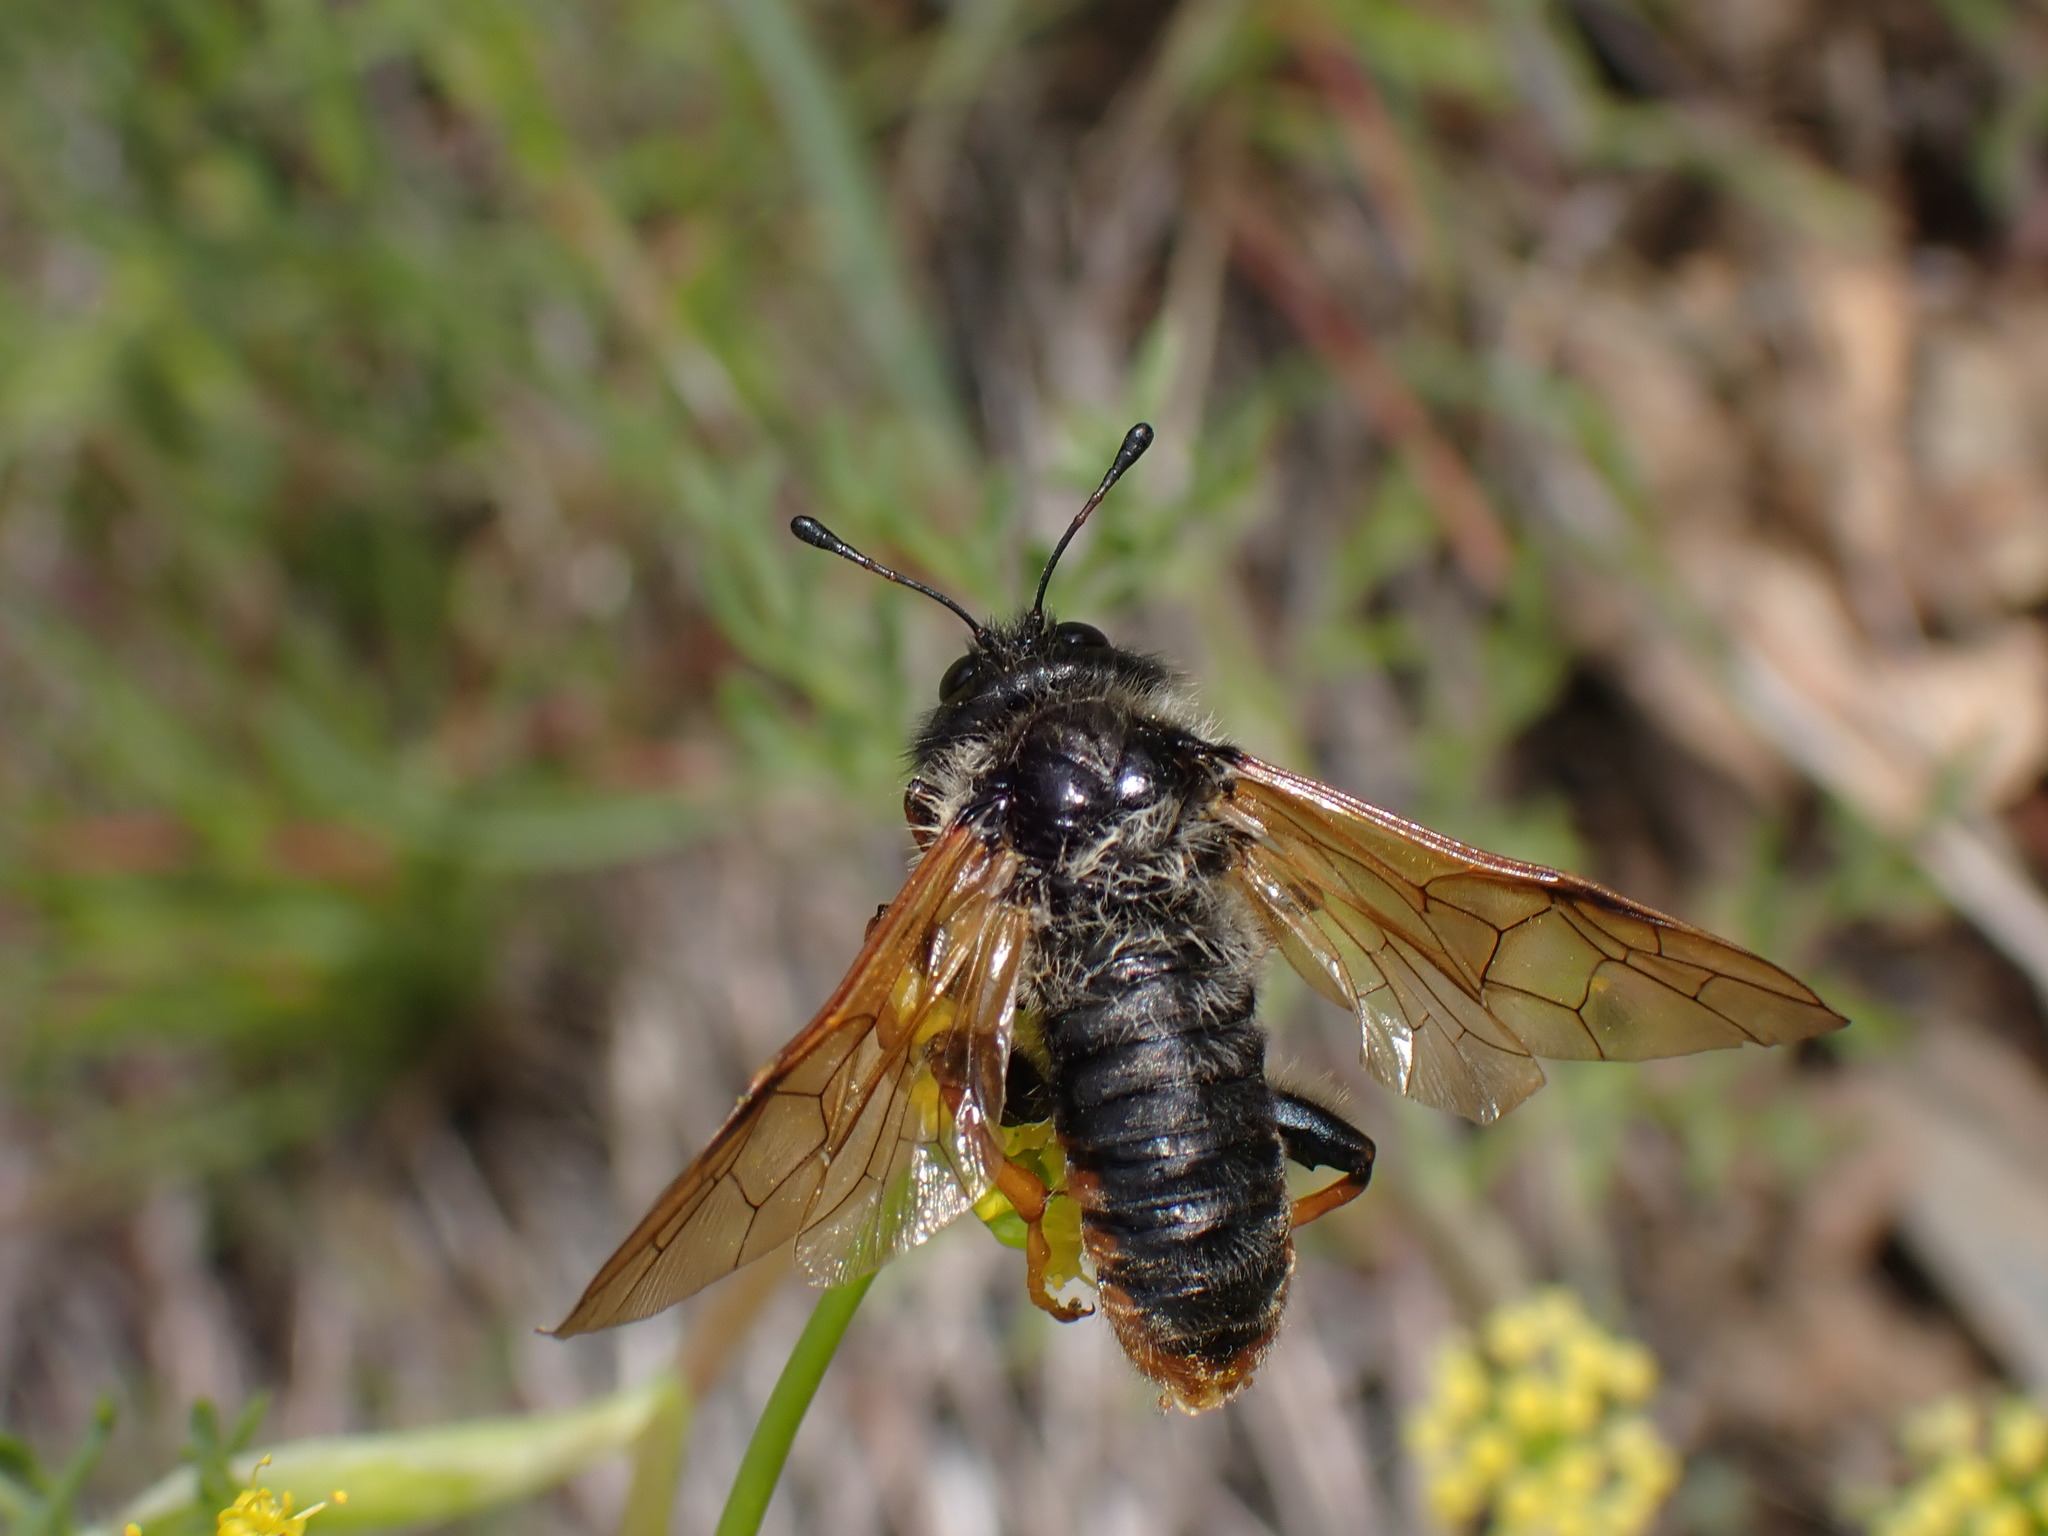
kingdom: Animalia
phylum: Arthropoda
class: Insecta
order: Hymenoptera
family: Cimbicidae
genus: Trichiosoma
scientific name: Trichiosoma triangulum
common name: Giant birch sawfly
